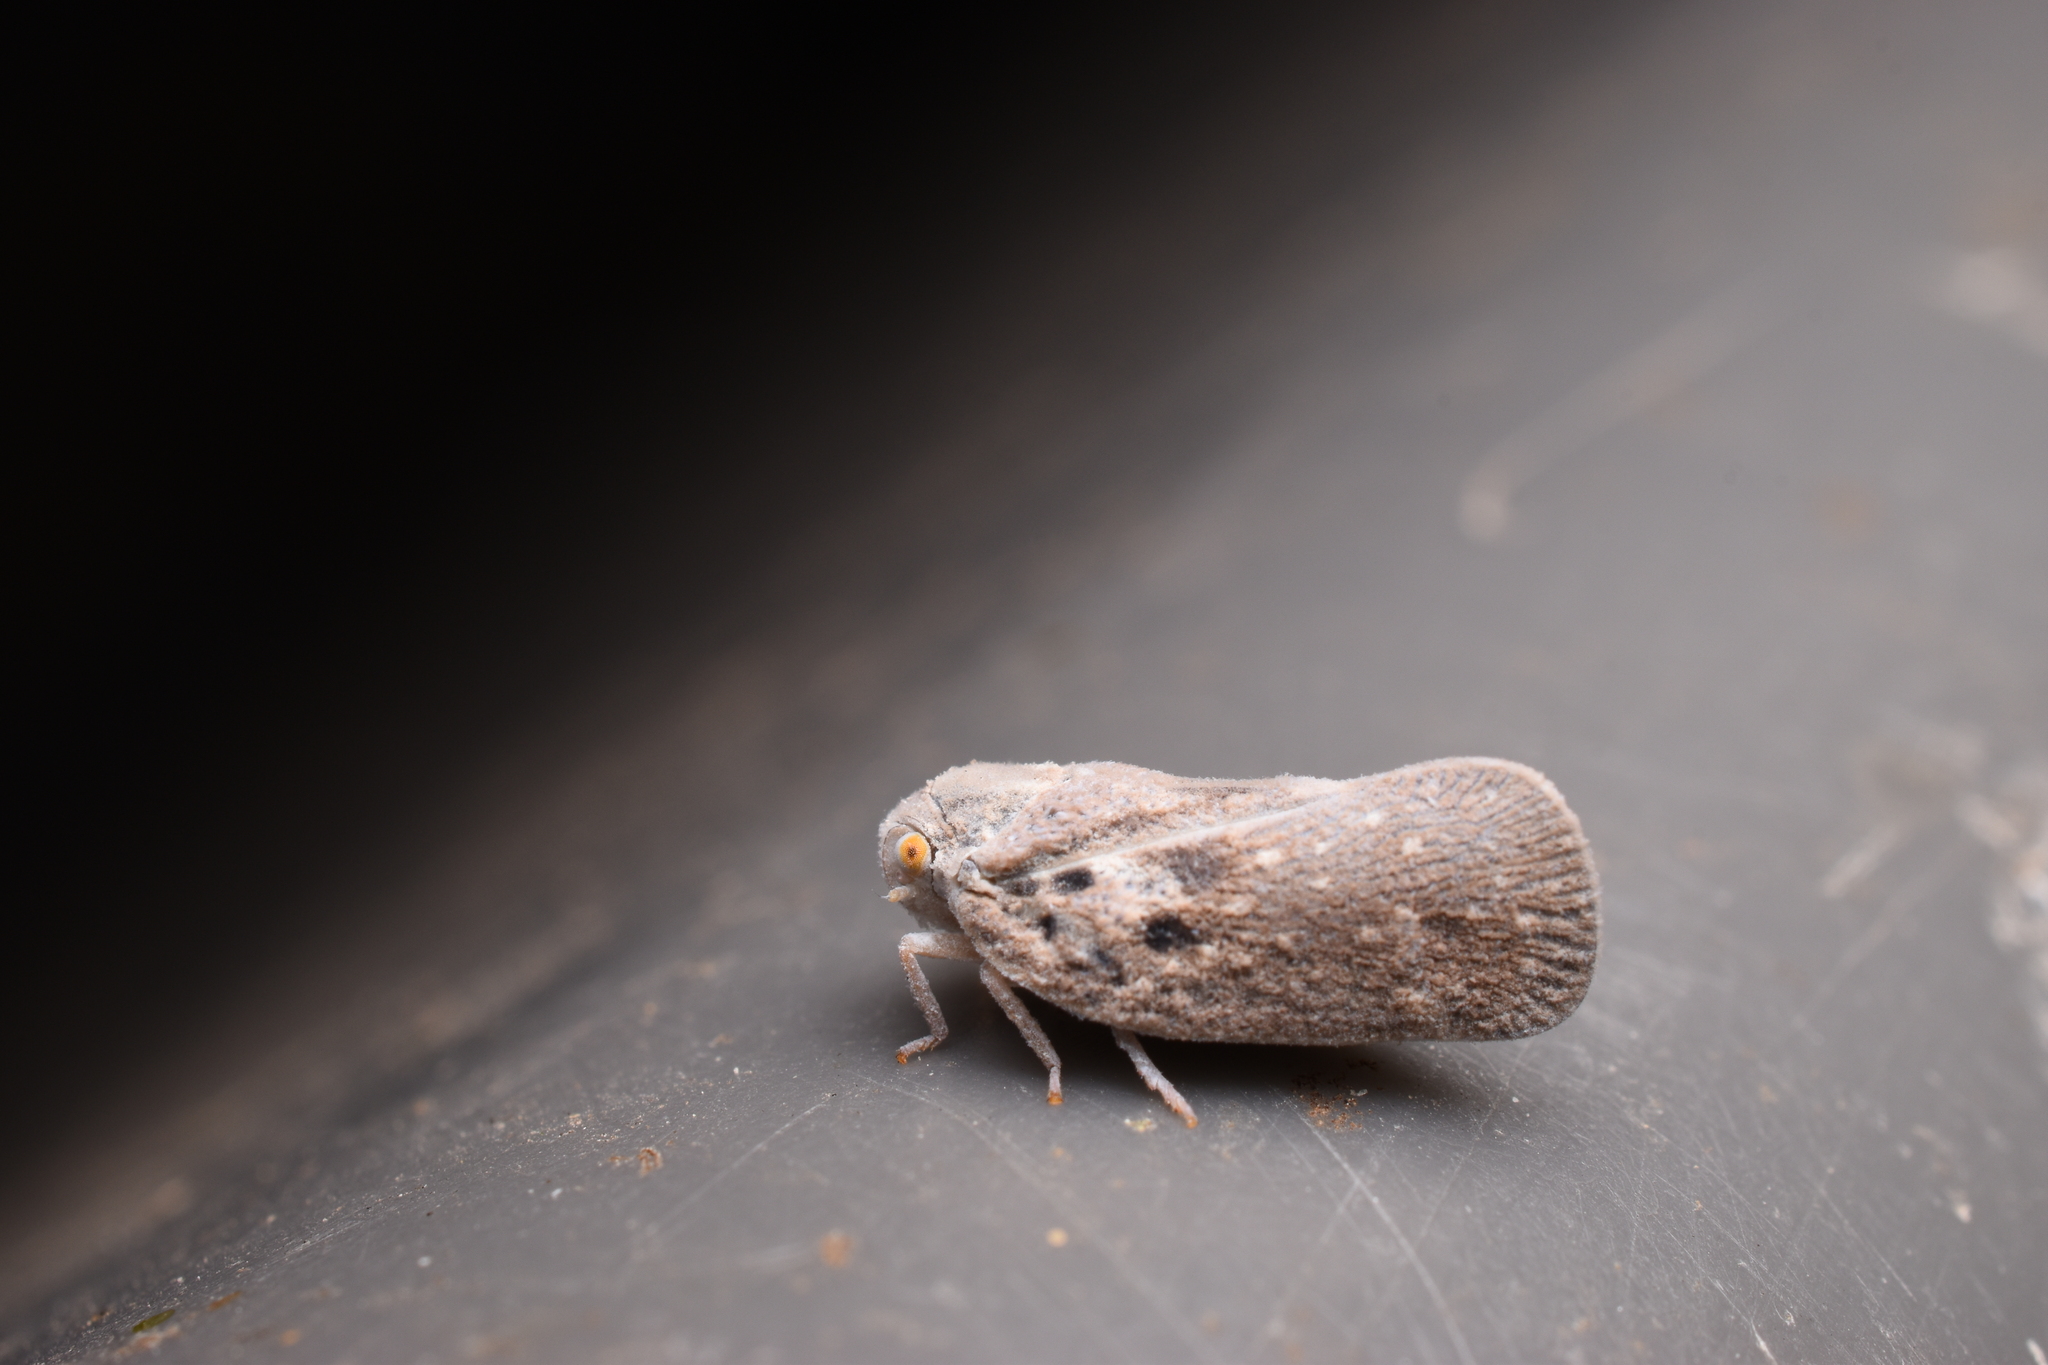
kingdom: Animalia
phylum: Arthropoda
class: Insecta
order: Hemiptera
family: Flatidae
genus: Metcalfa
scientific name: Metcalfa pruinosa
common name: Citrus flatid planthopper
